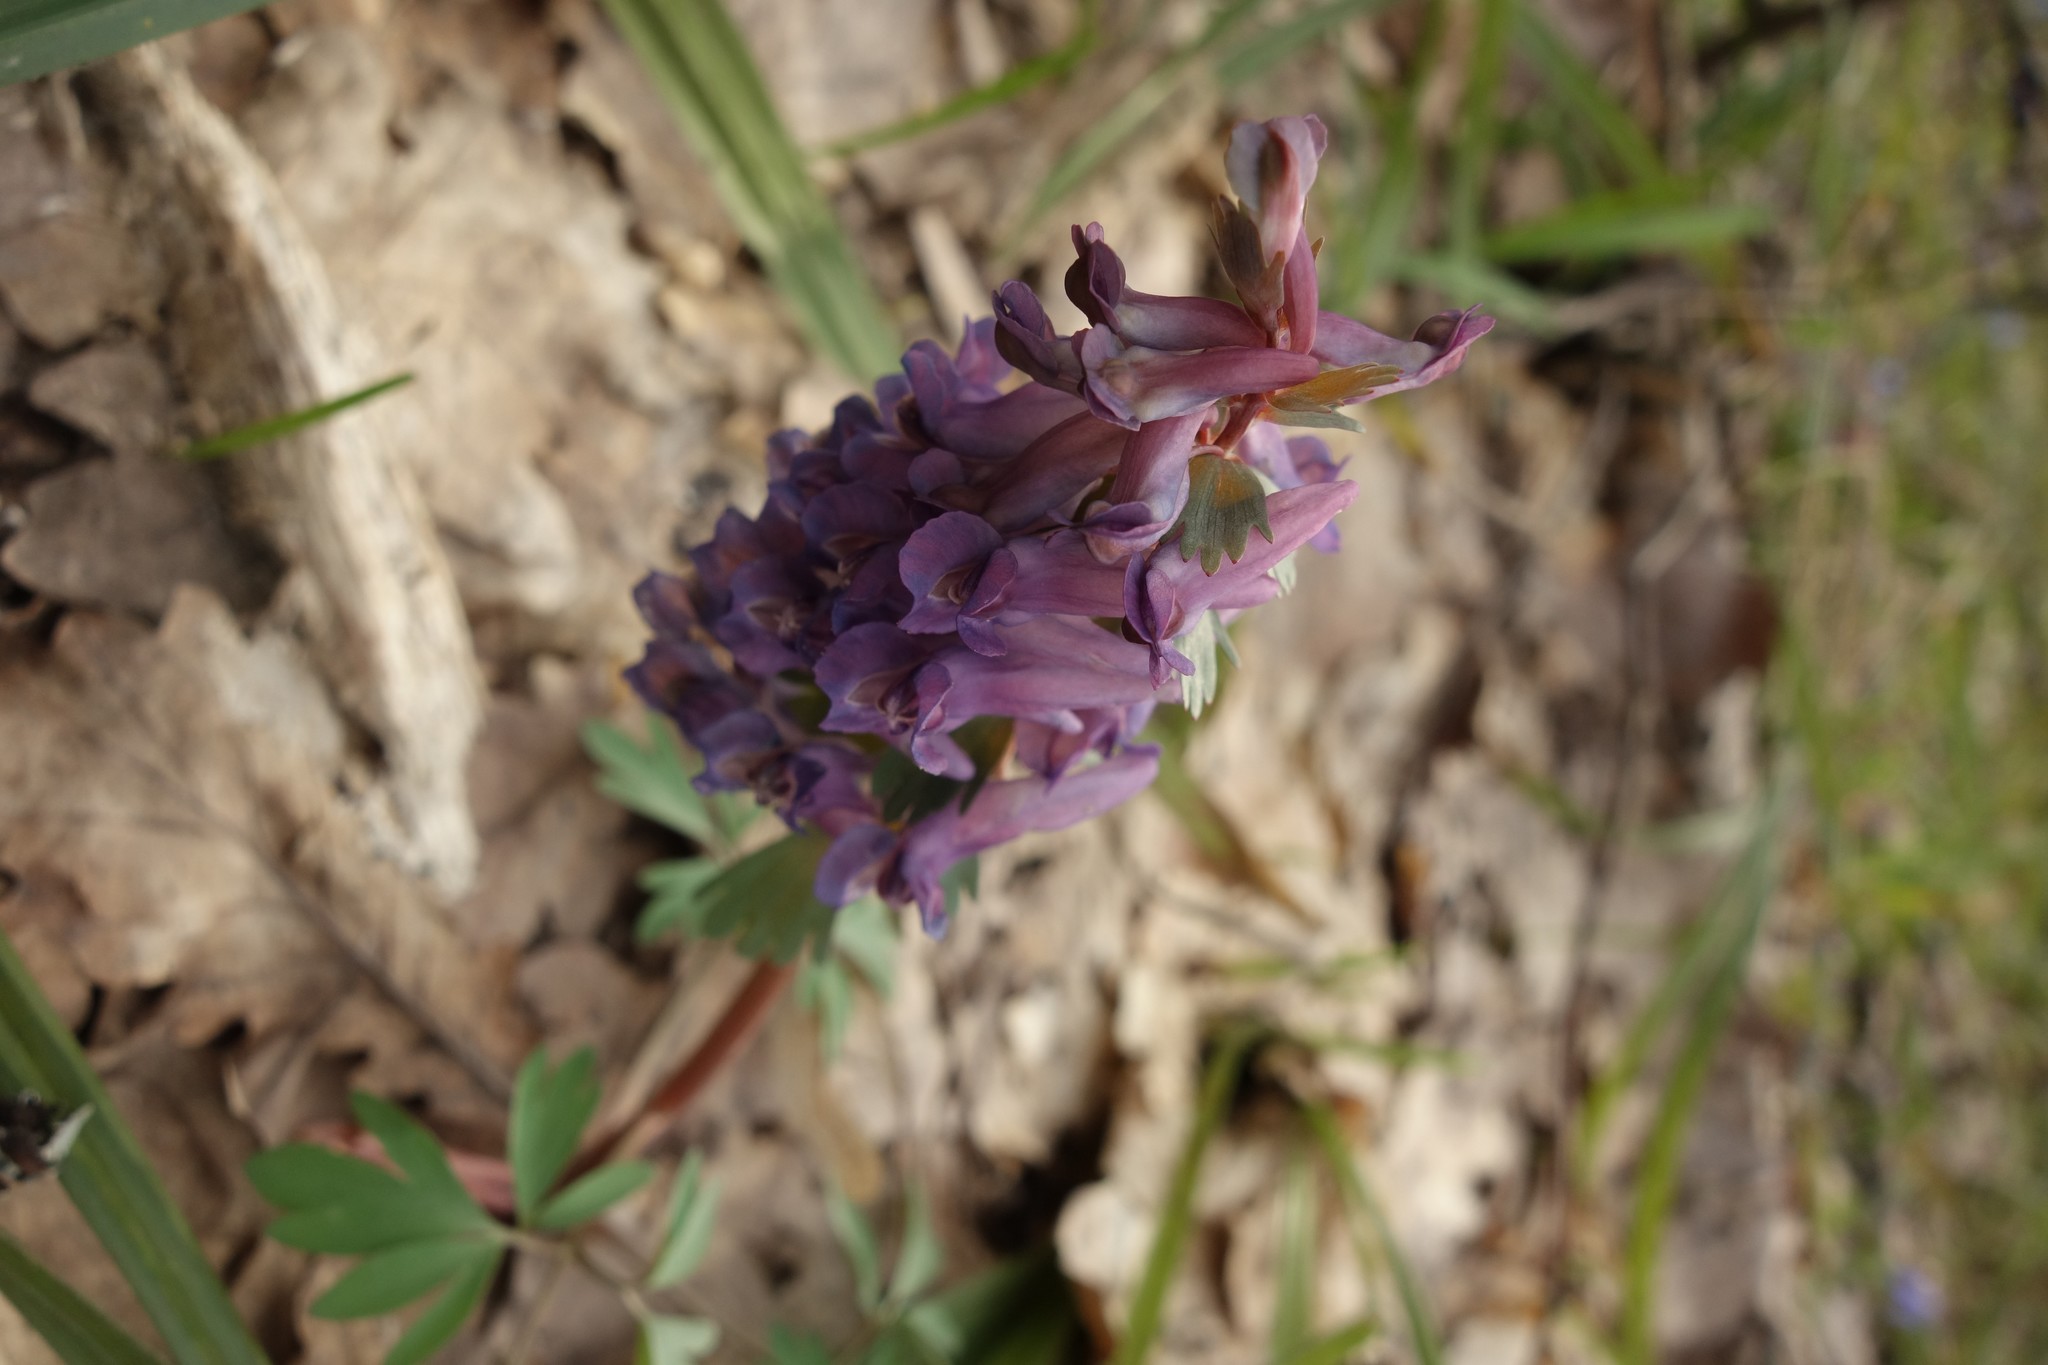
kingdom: Plantae
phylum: Tracheophyta
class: Magnoliopsida
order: Ranunculales
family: Papaveraceae
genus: Corydalis
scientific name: Corydalis solida
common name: Bird-in-a-bush
